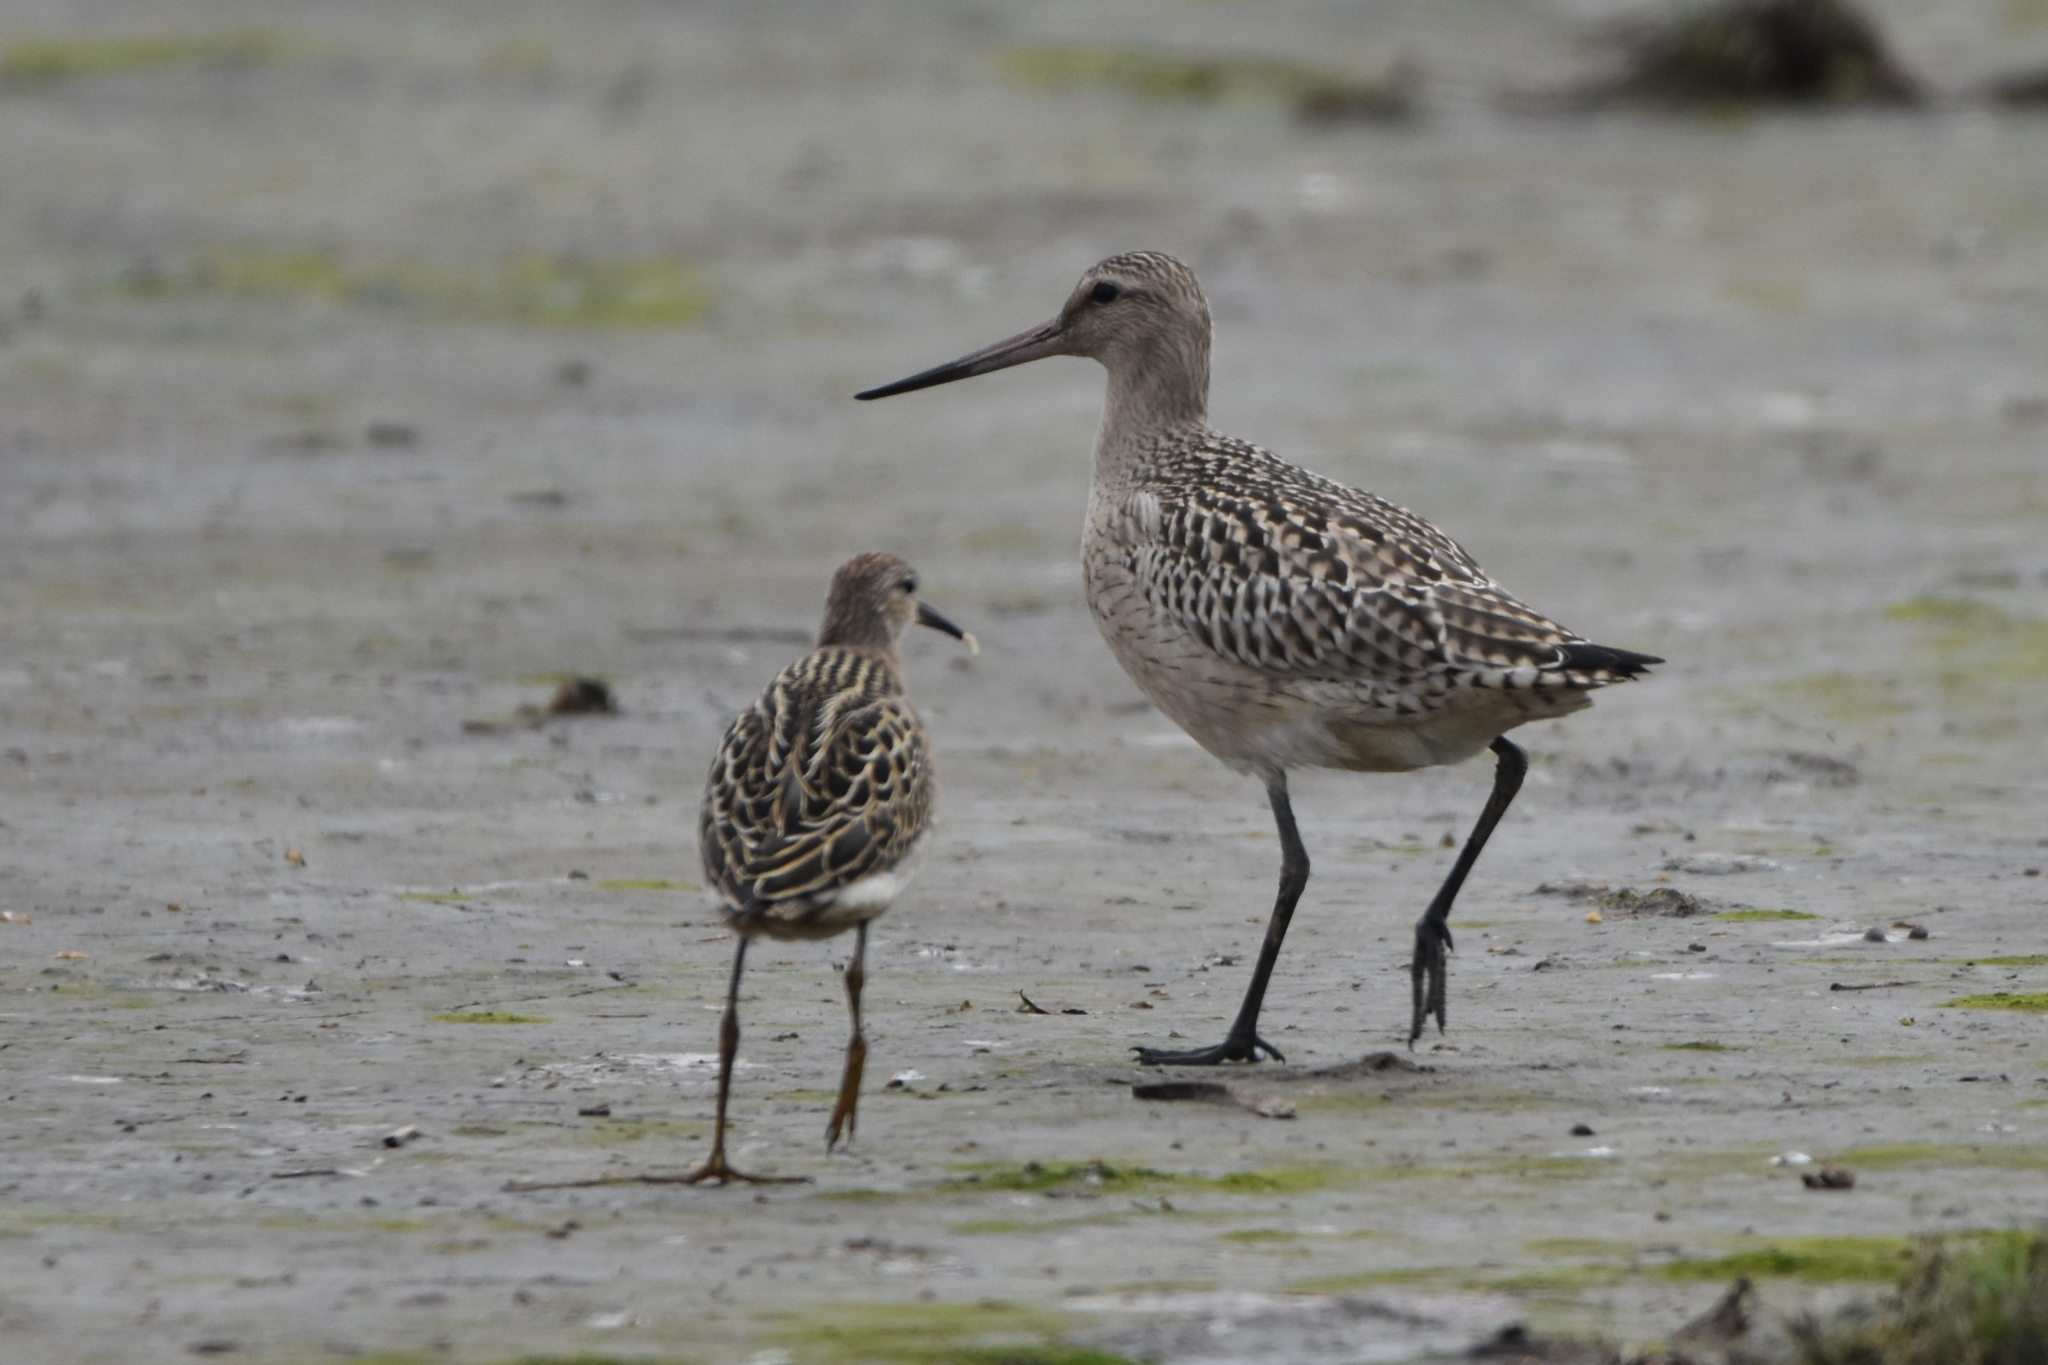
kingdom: Animalia
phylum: Chordata
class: Aves
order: Charadriiformes
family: Scolopacidae
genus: Calidris
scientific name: Calidris pugnax
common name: Ruff
